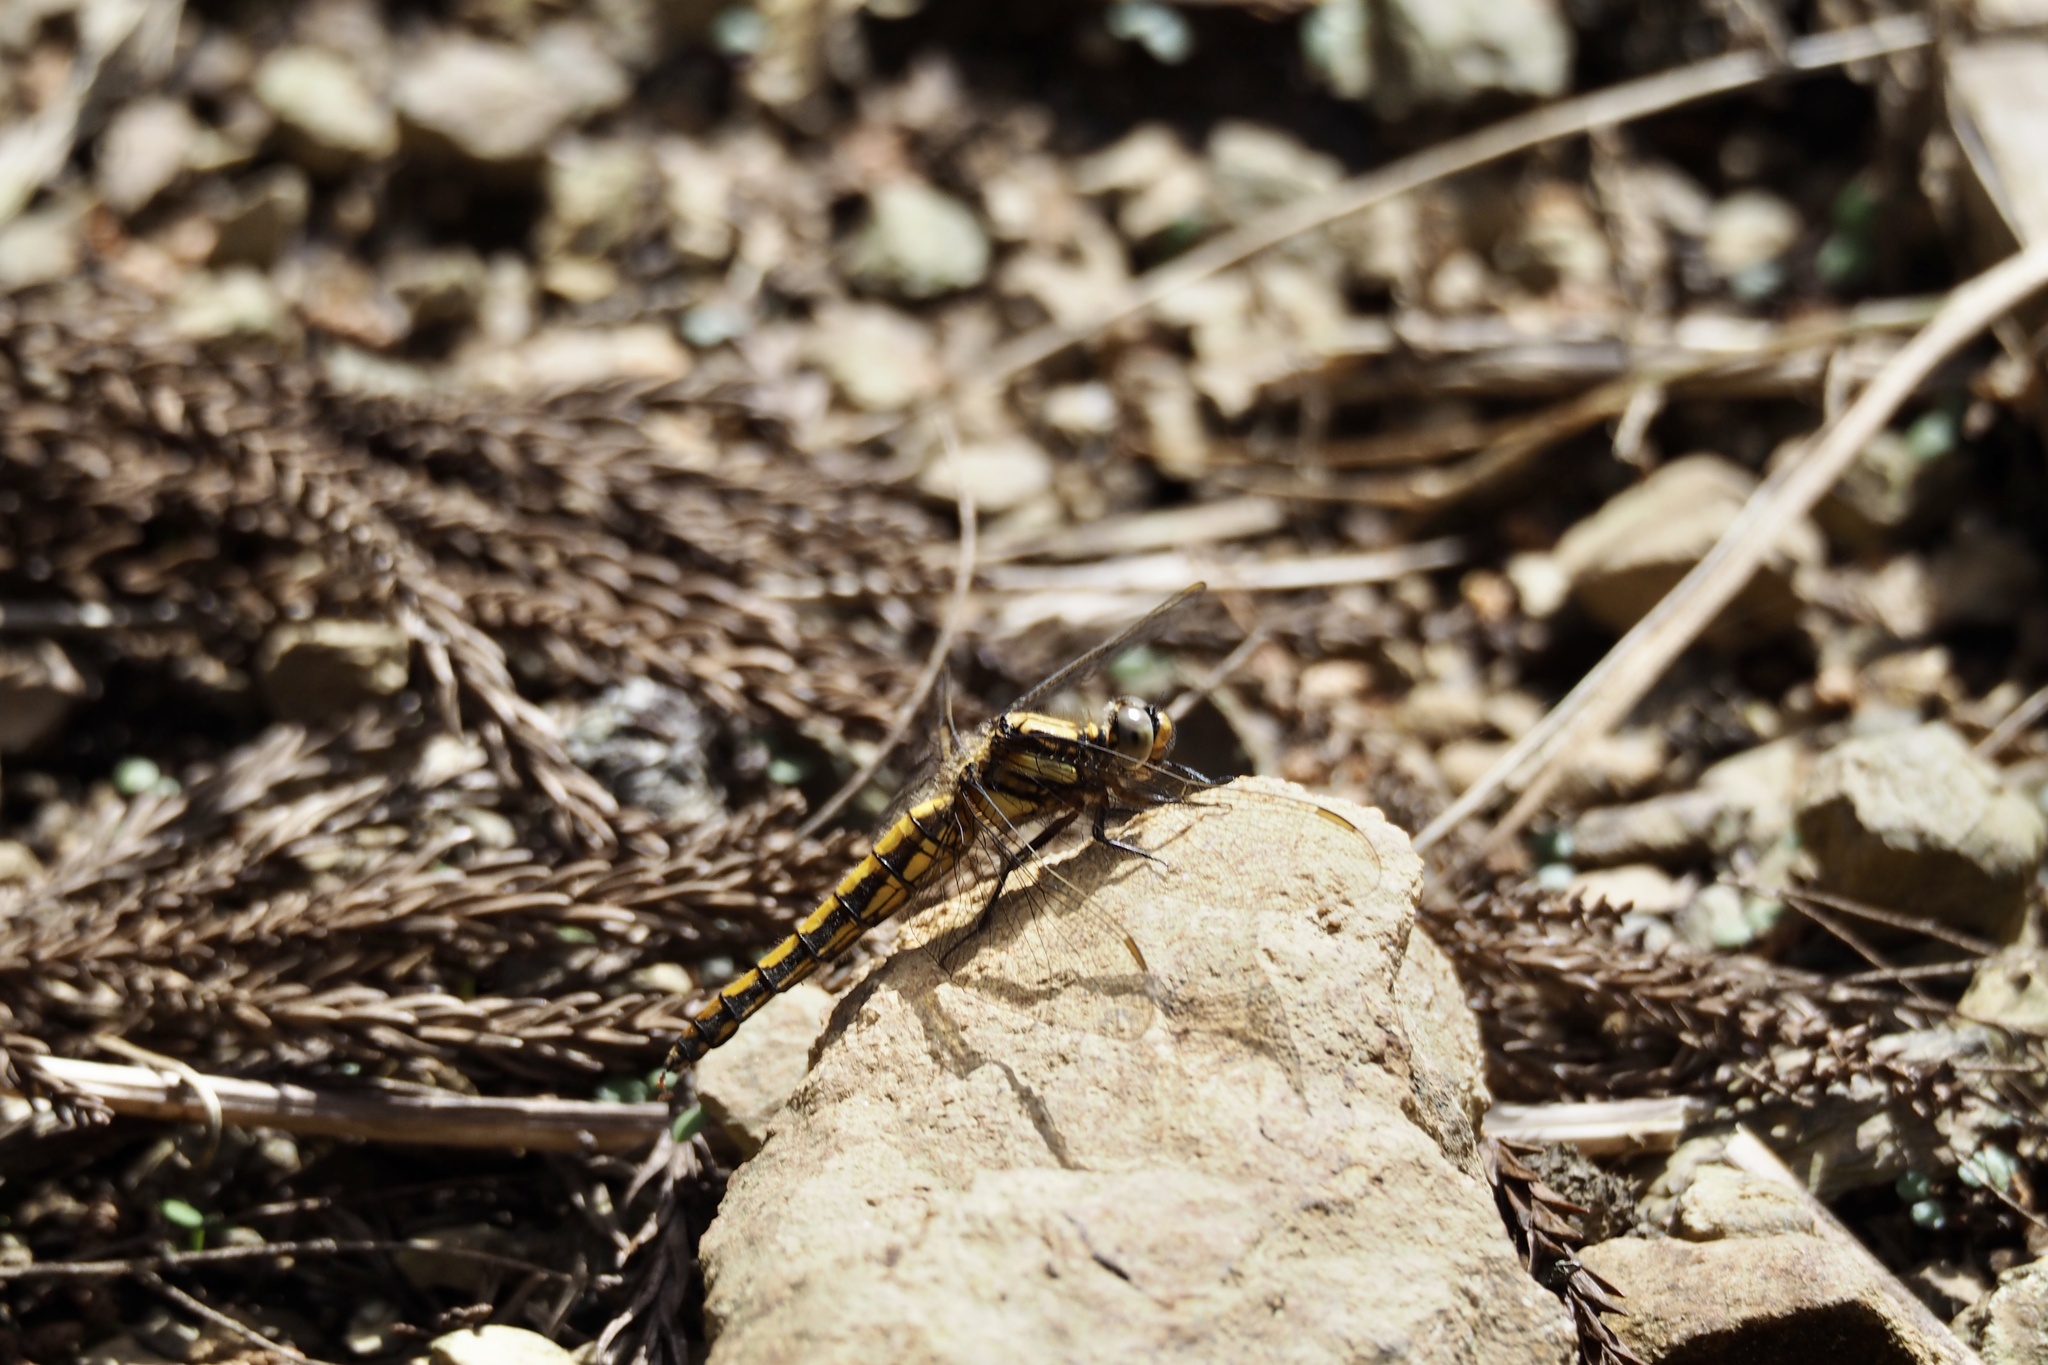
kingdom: Animalia
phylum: Arthropoda
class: Insecta
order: Odonata
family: Libellulidae
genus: Orthetrum
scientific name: Orthetrum japonicum
